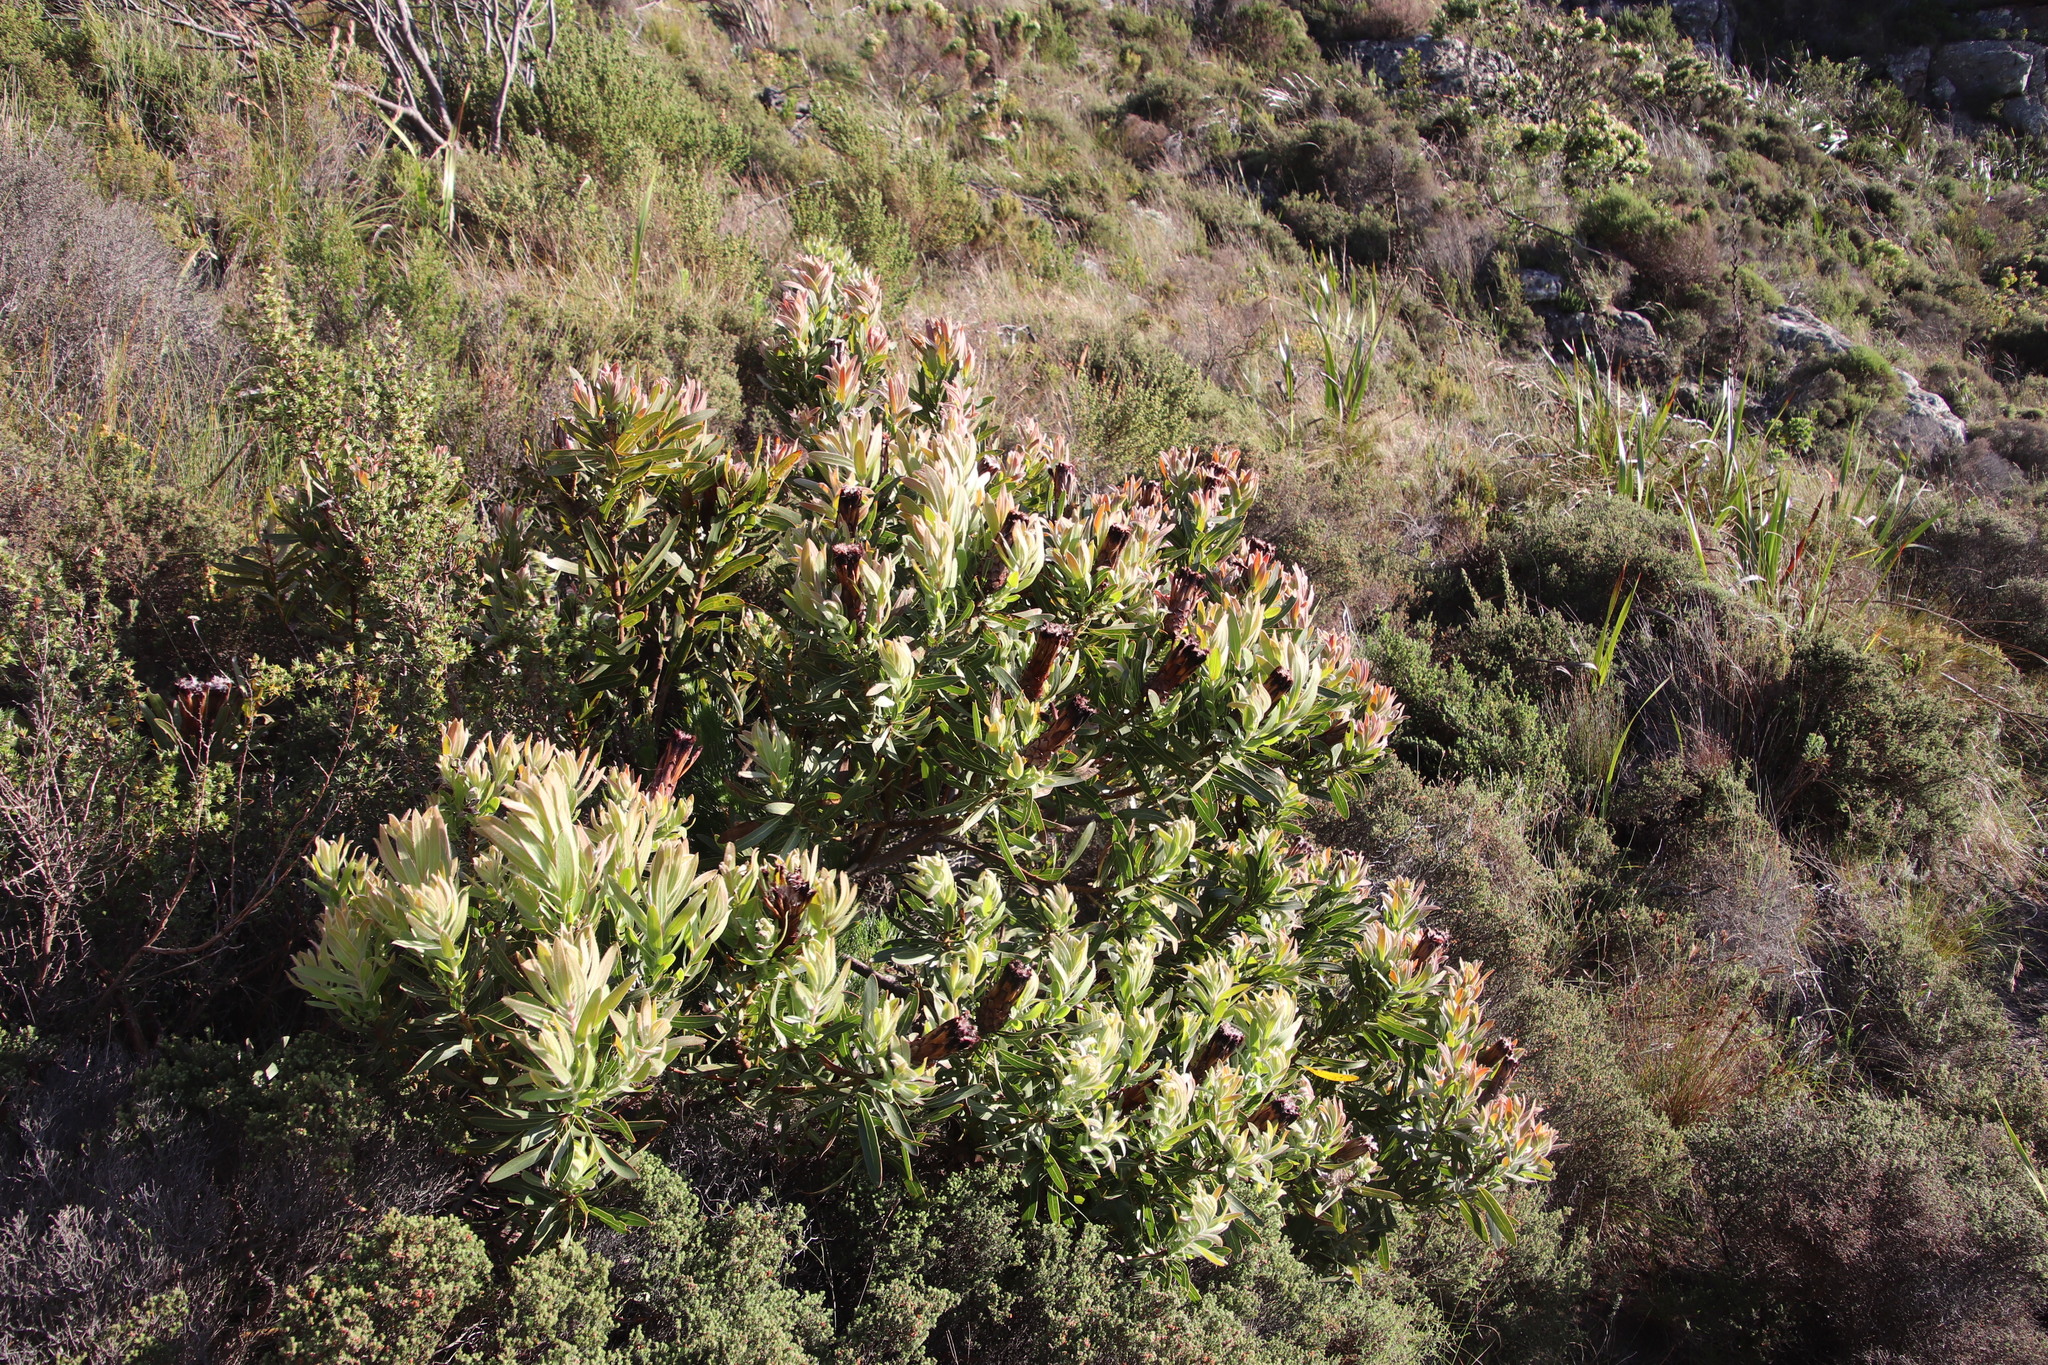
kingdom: Plantae
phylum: Tracheophyta
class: Magnoliopsida
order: Proteales
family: Proteaceae
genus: Protea
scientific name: Protea lepidocarpodendron
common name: Black-bearded protea
